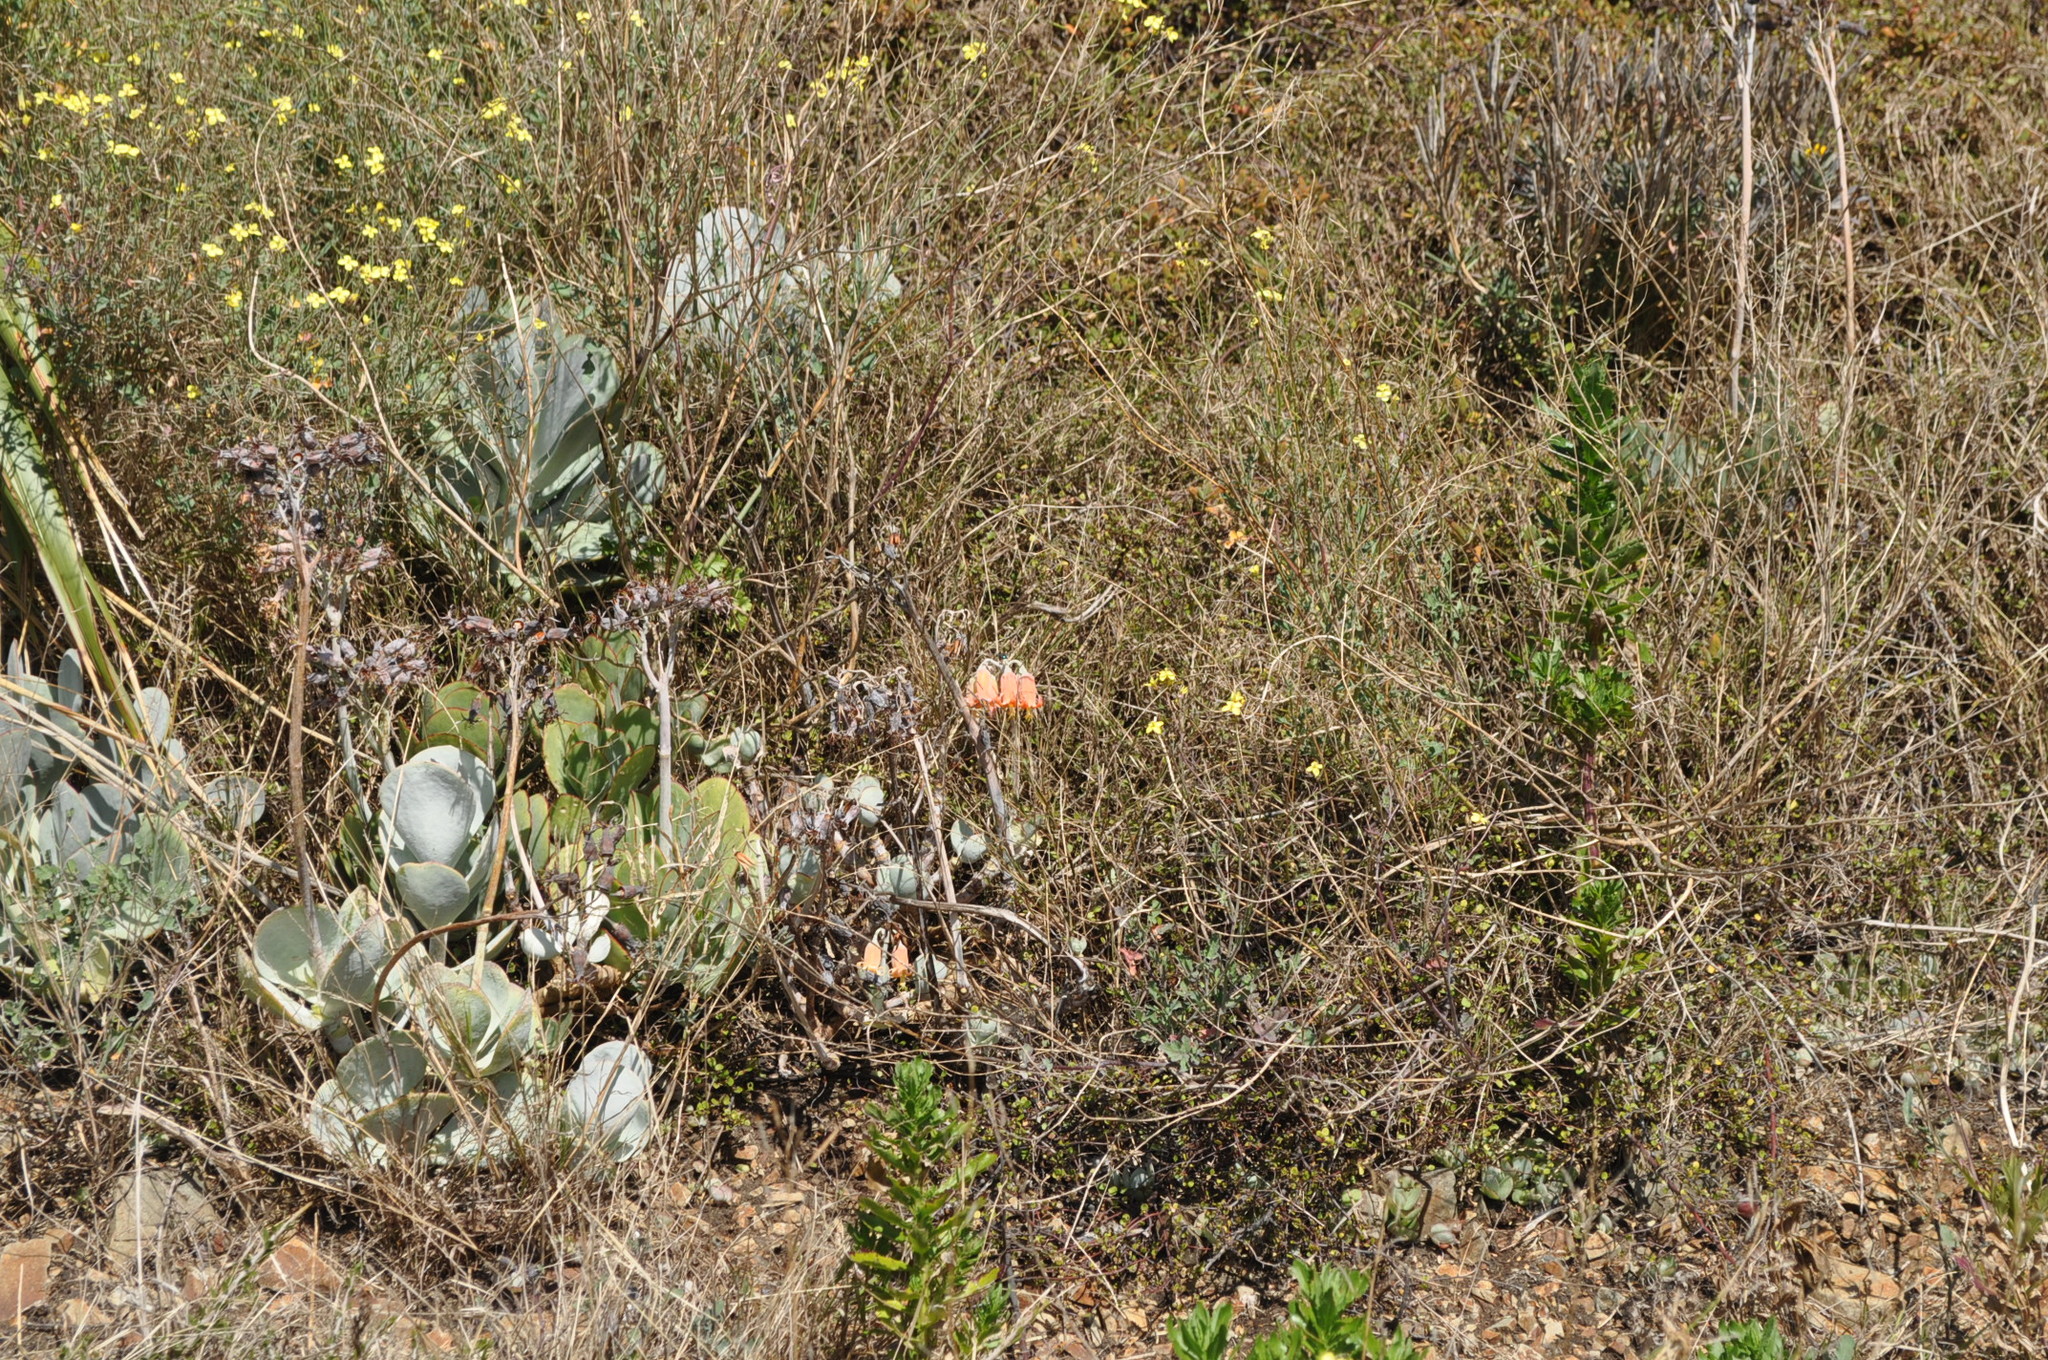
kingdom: Plantae
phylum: Tracheophyta
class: Magnoliopsida
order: Saxifragales
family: Crassulaceae
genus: Cotyledon
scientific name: Cotyledon orbiculata
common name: Pig's ear
